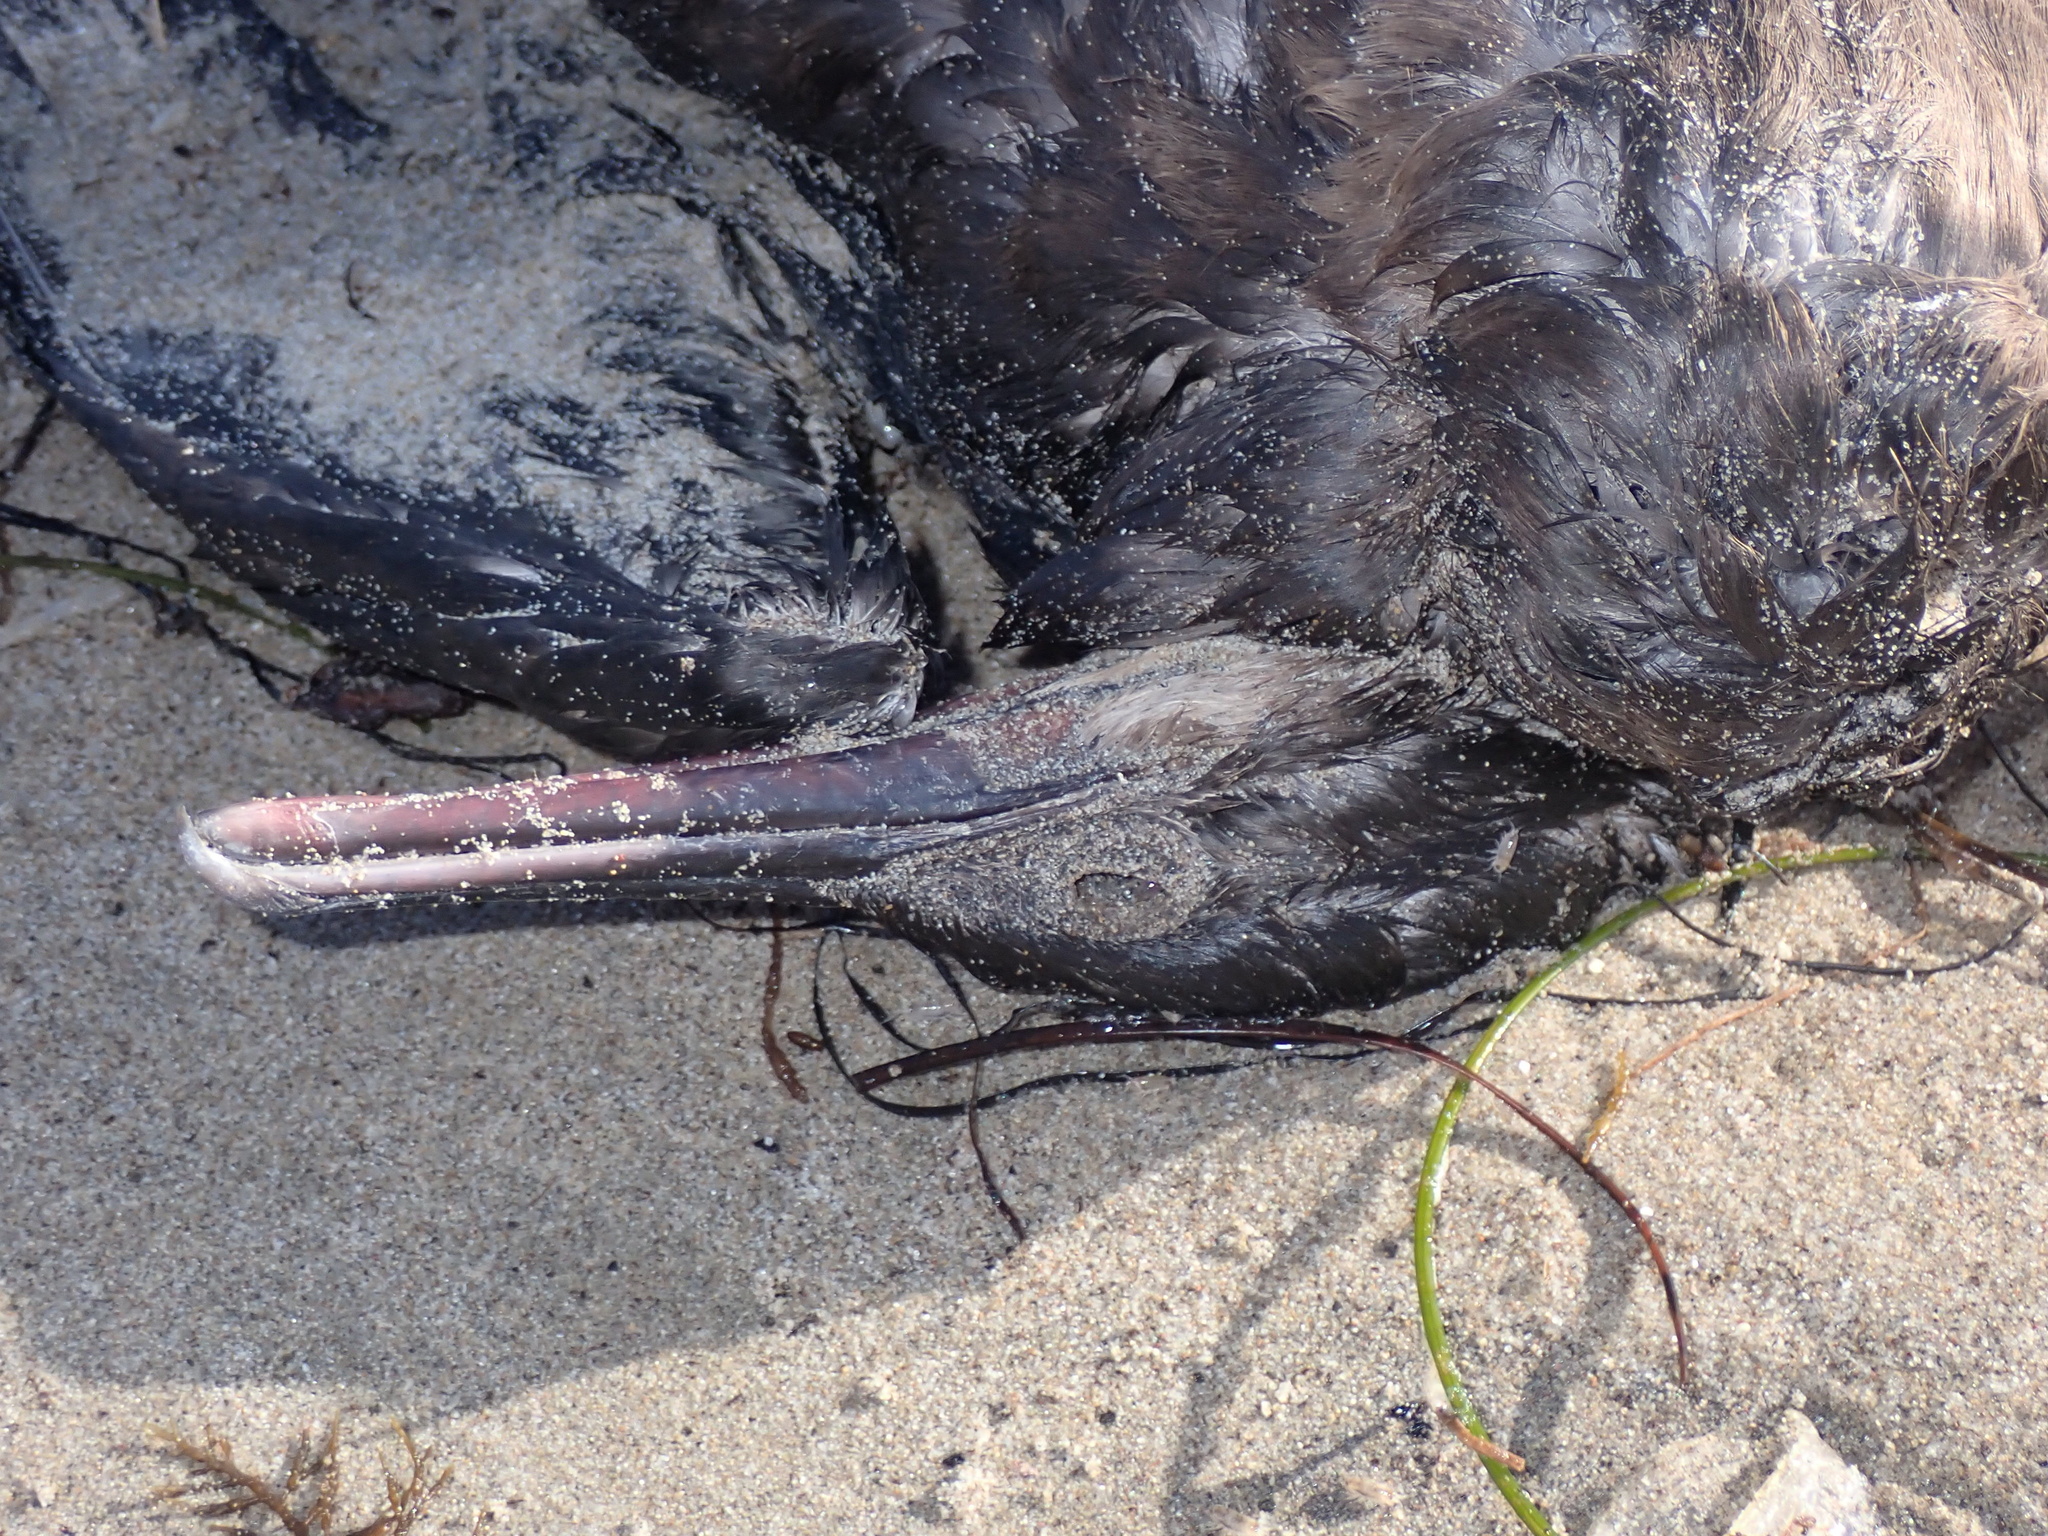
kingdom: Animalia
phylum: Chordata
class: Aves
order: Suliformes
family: Phalacrocoracidae
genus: Urile
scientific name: Urile penicillatus
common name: Brandt's cormorant
